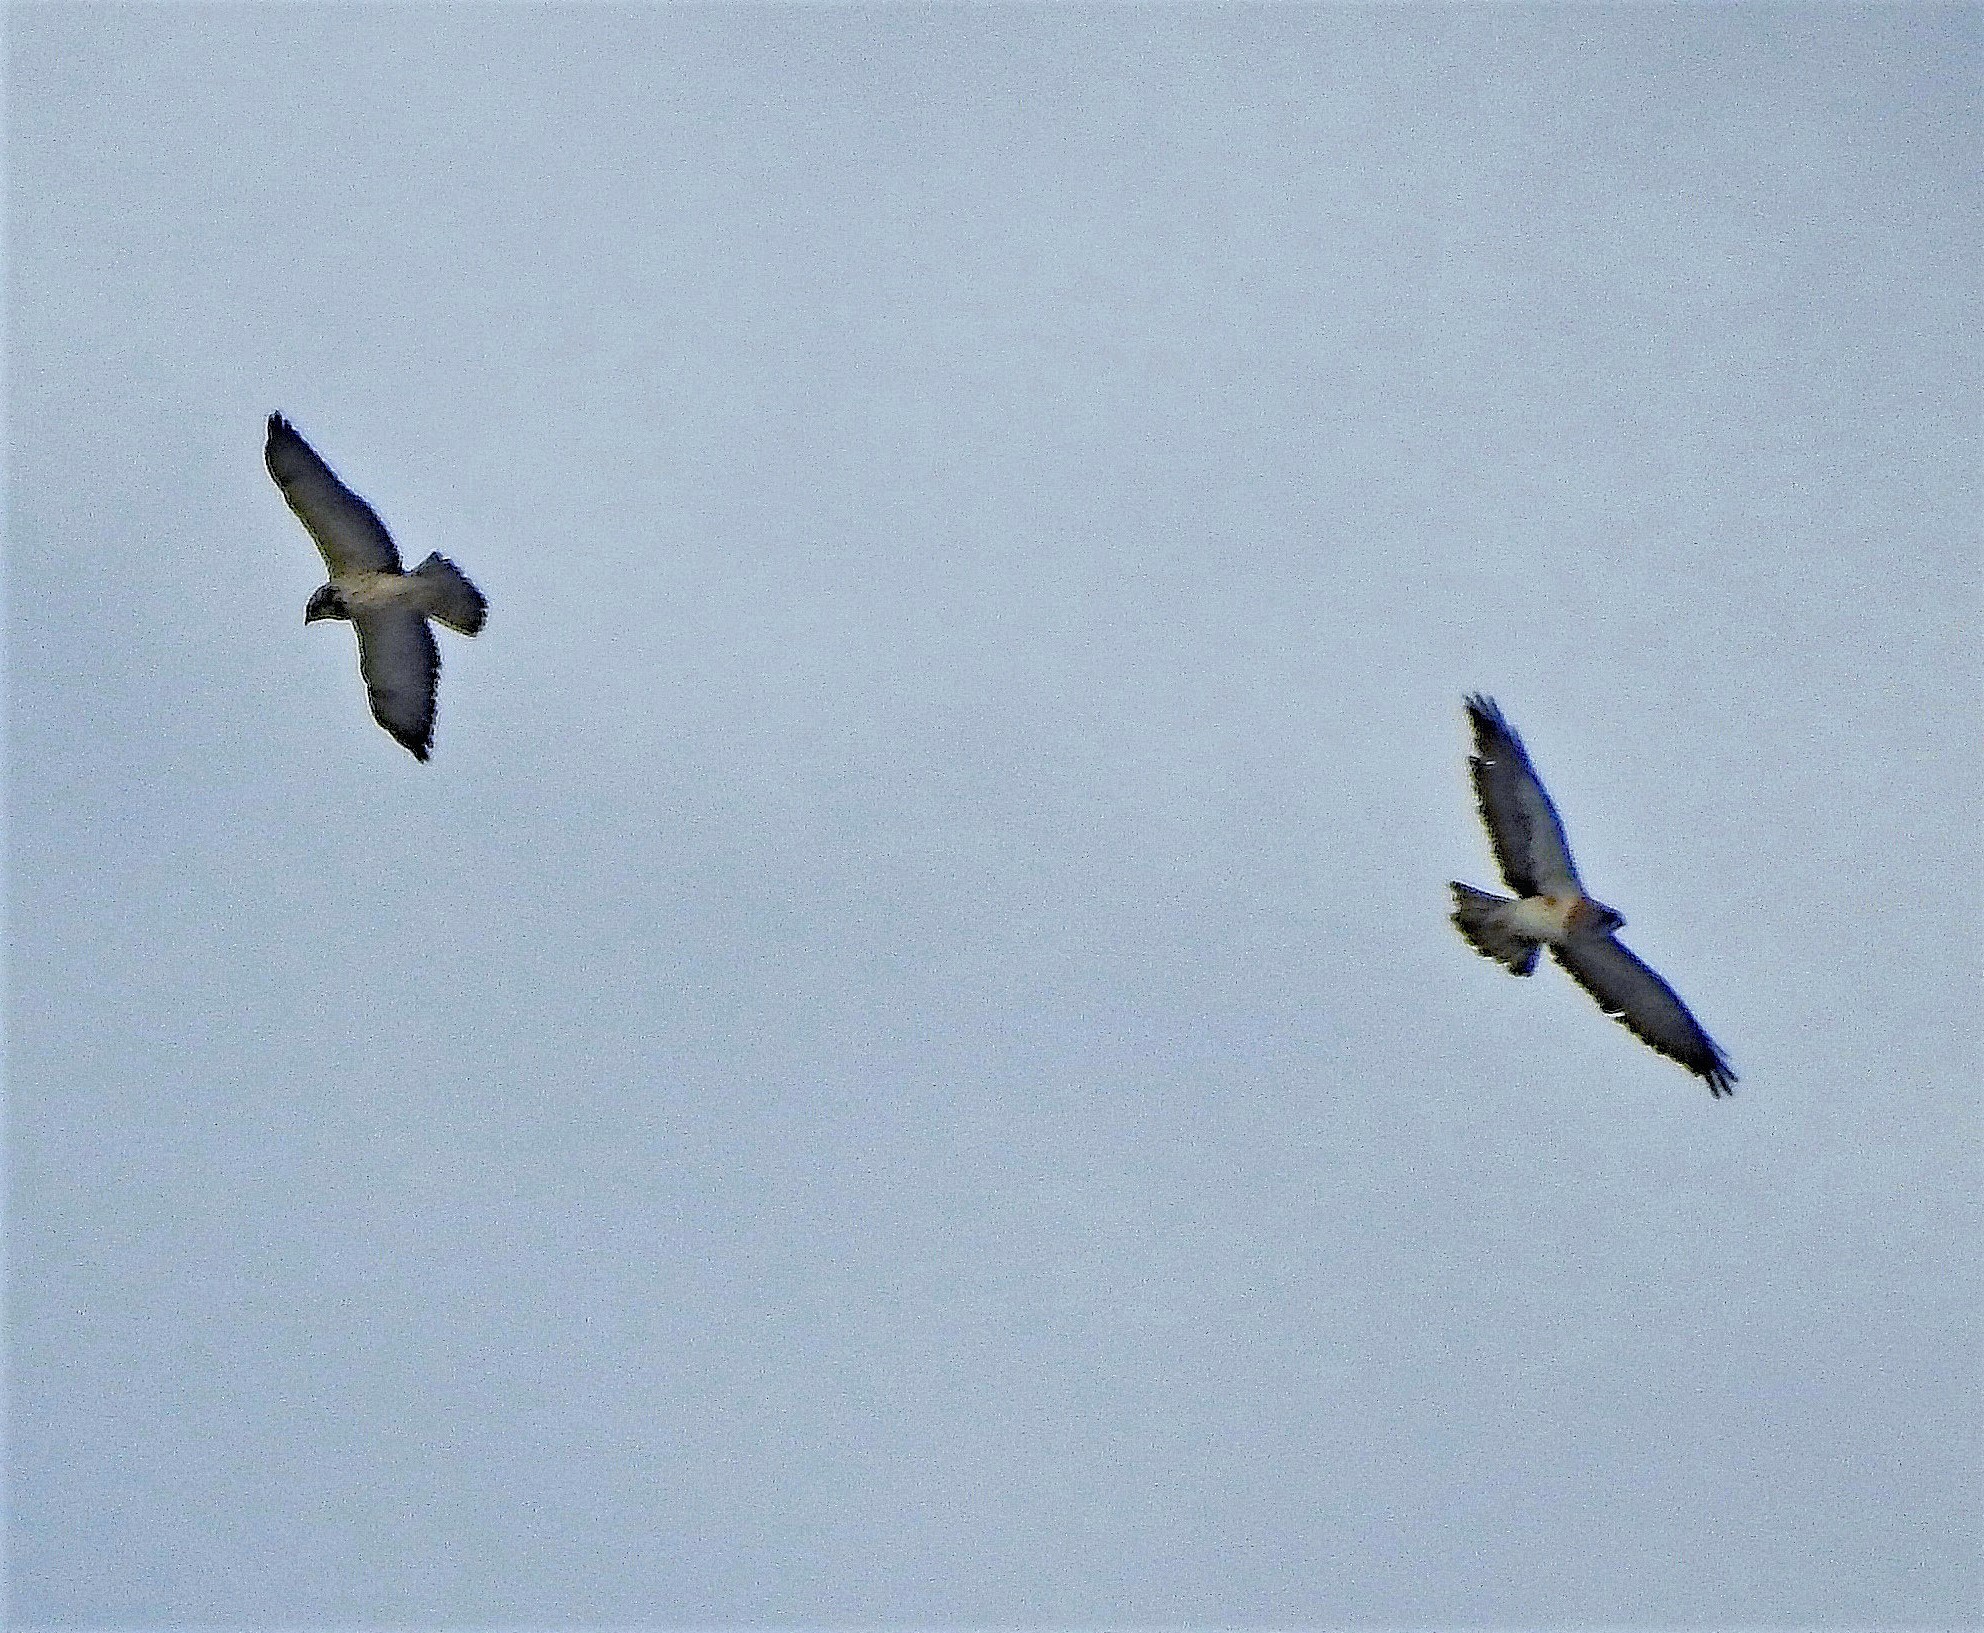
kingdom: Animalia
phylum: Chordata
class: Aves
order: Accipitriformes
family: Accipitridae
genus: Buteo
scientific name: Buteo swainsoni
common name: Swainson's hawk
